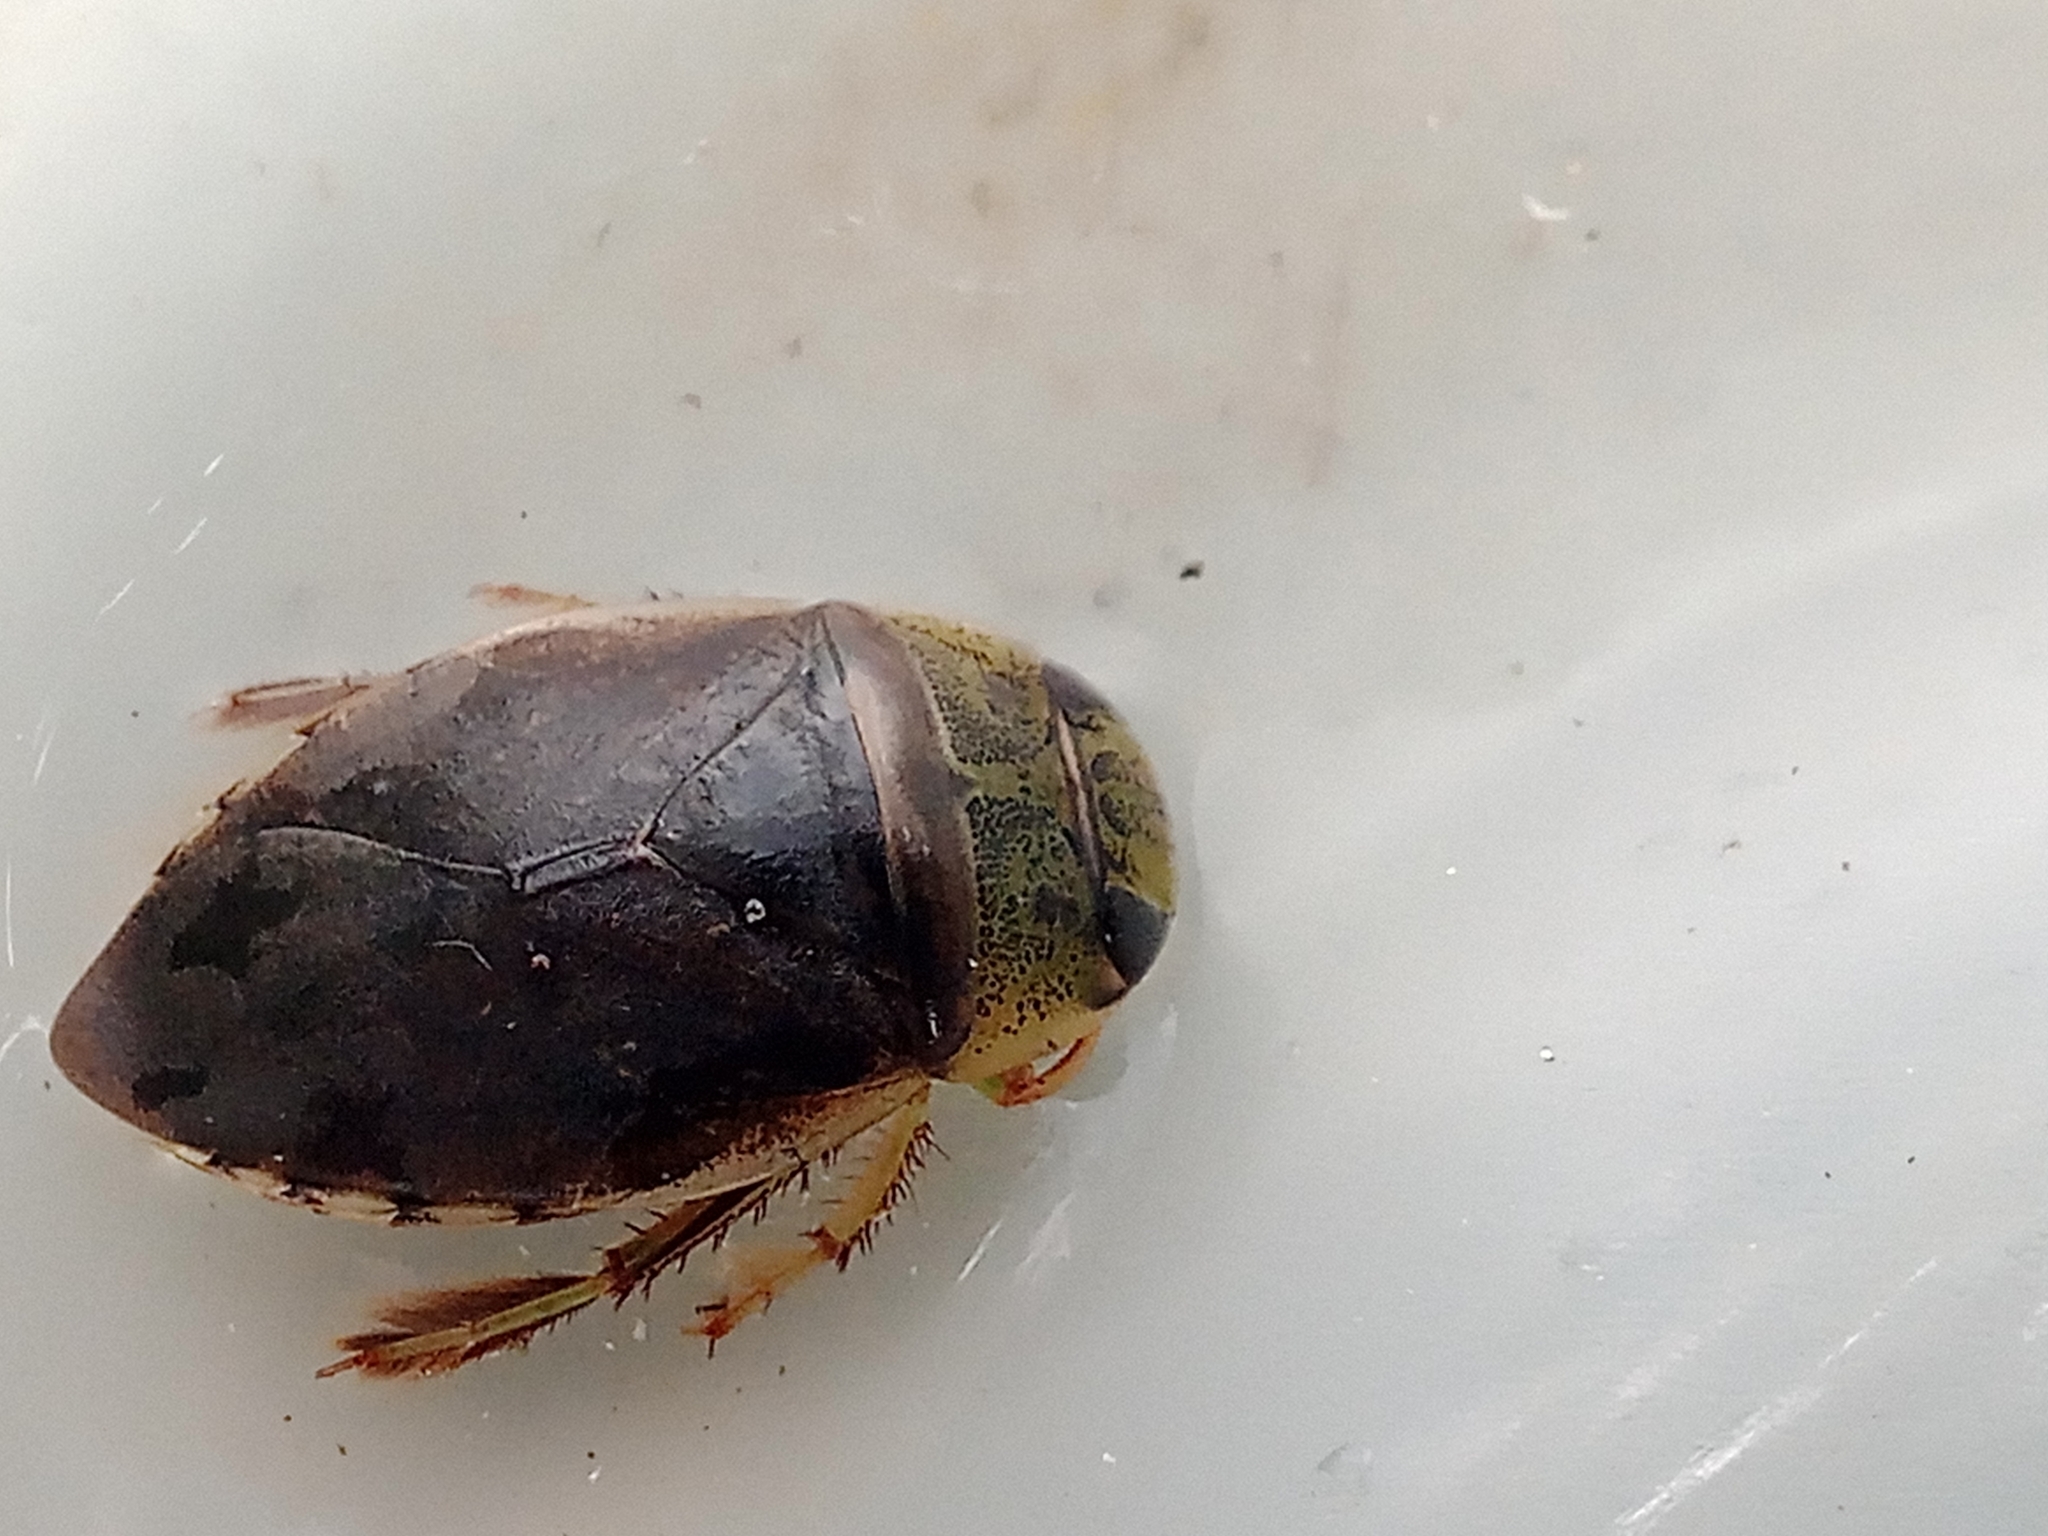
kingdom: Animalia
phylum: Arthropoda
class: Insecta
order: Hemiptera
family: Naucoridae
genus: Ilyocoris
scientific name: Ilyocoris cimicoides
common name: Saucer bugs
